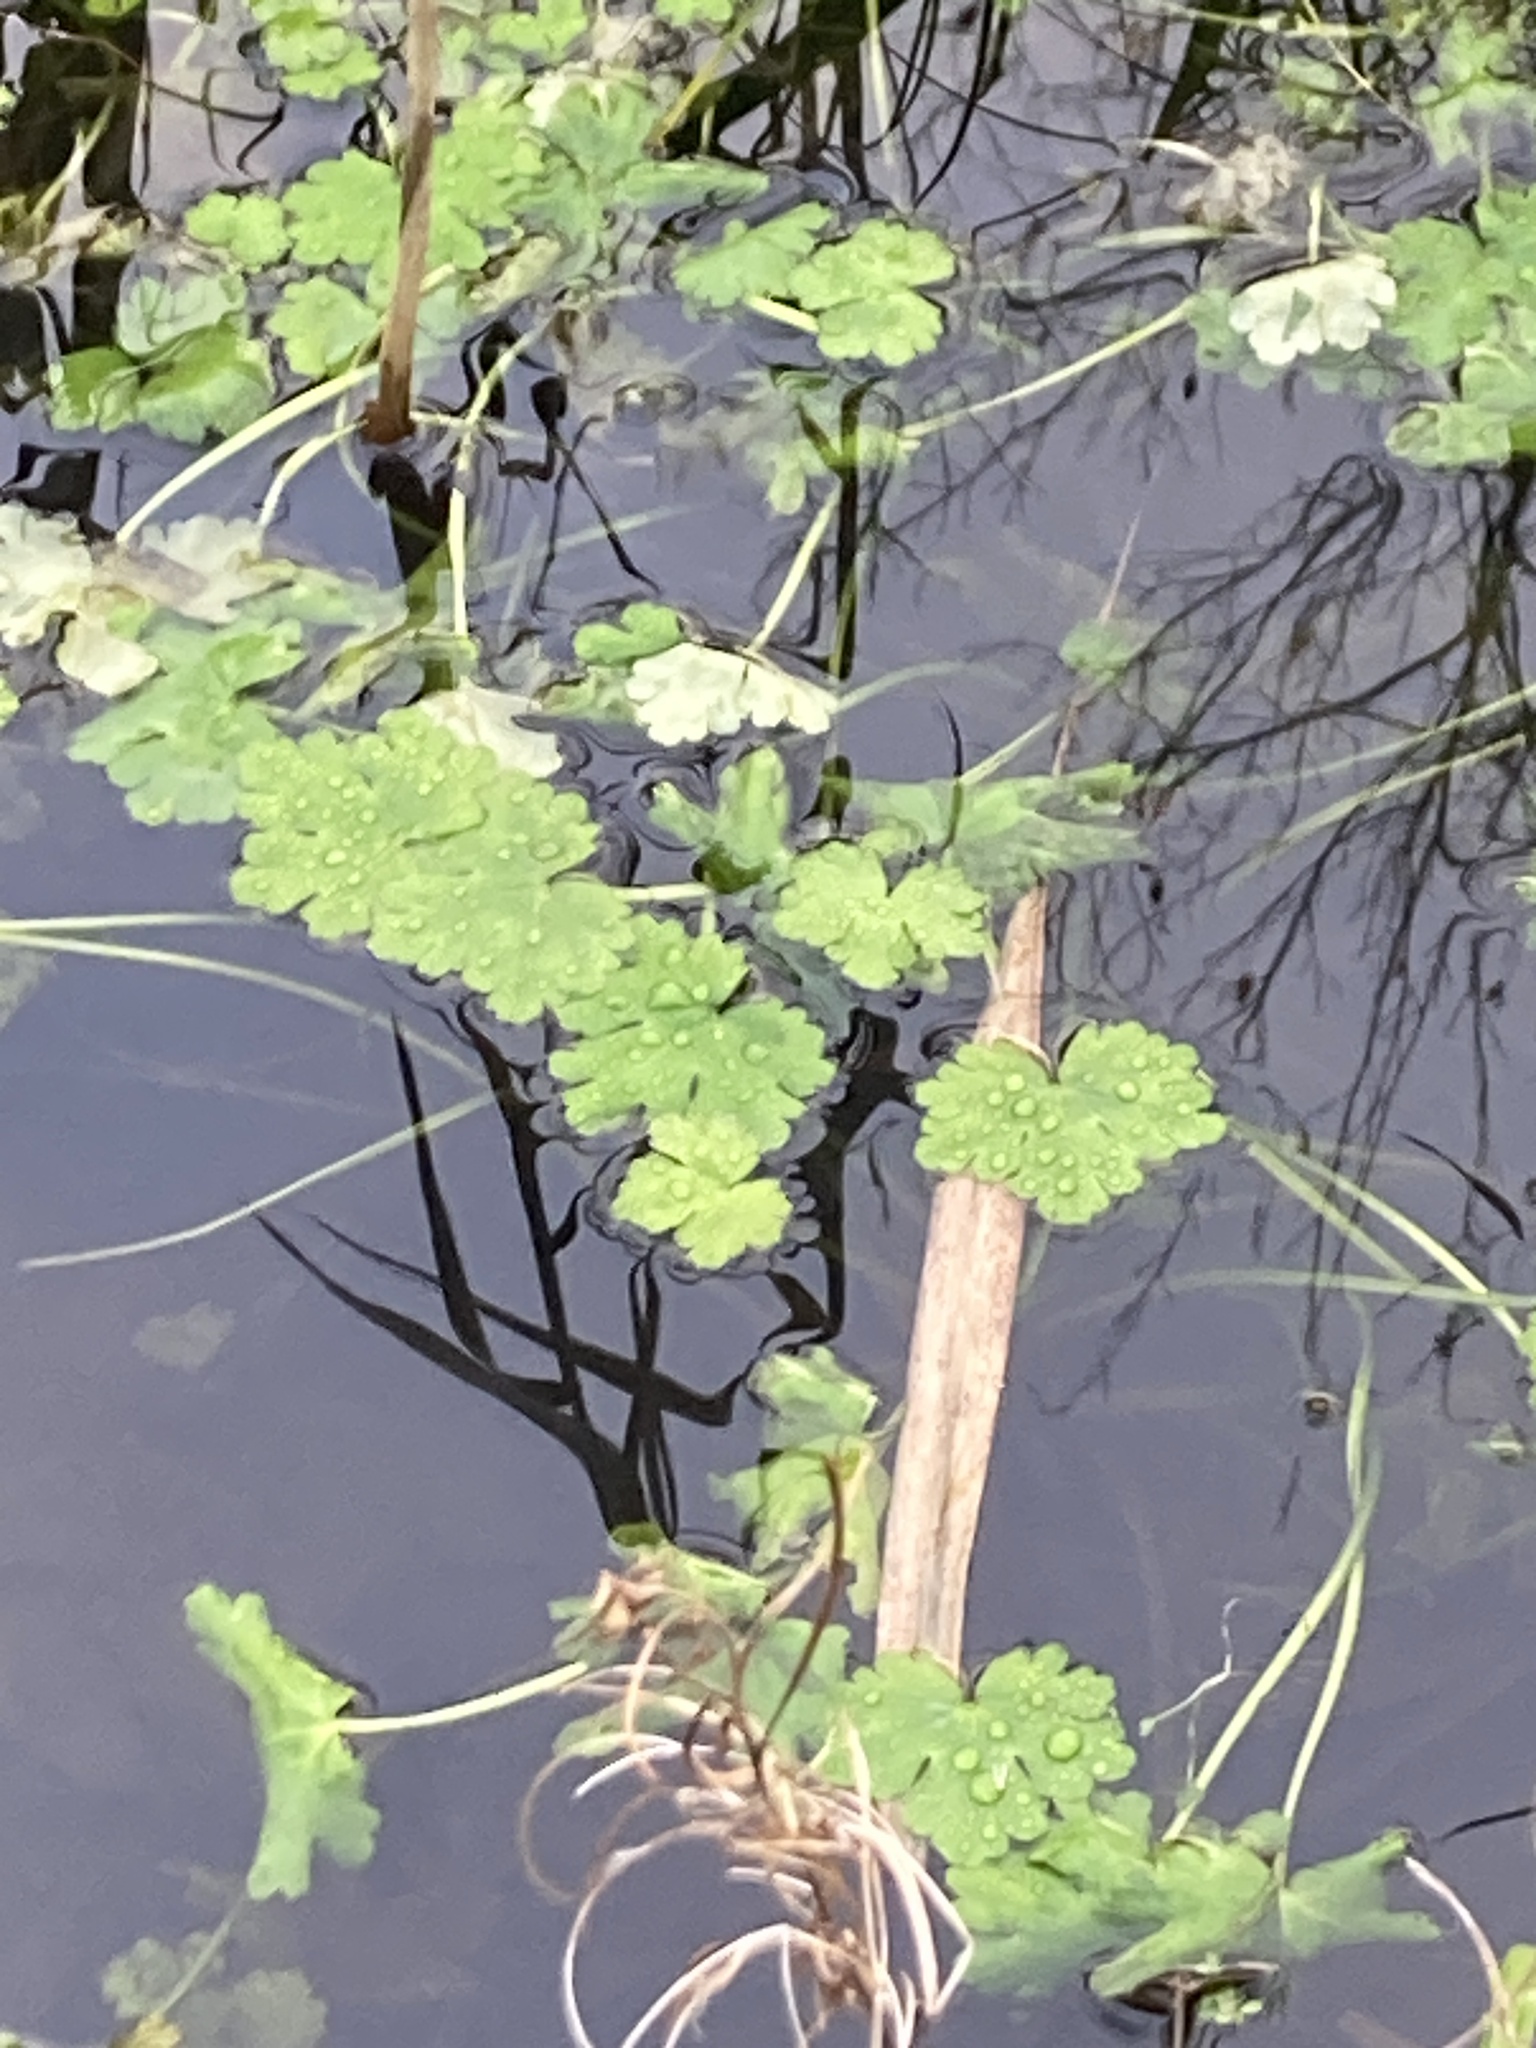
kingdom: Plantae
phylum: Tracheophyta
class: Magnoliopsida
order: Apiales
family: Araliaceae
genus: Hydrocotyle
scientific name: Hydrocotyle ranunculoides
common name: Floating pennywort
